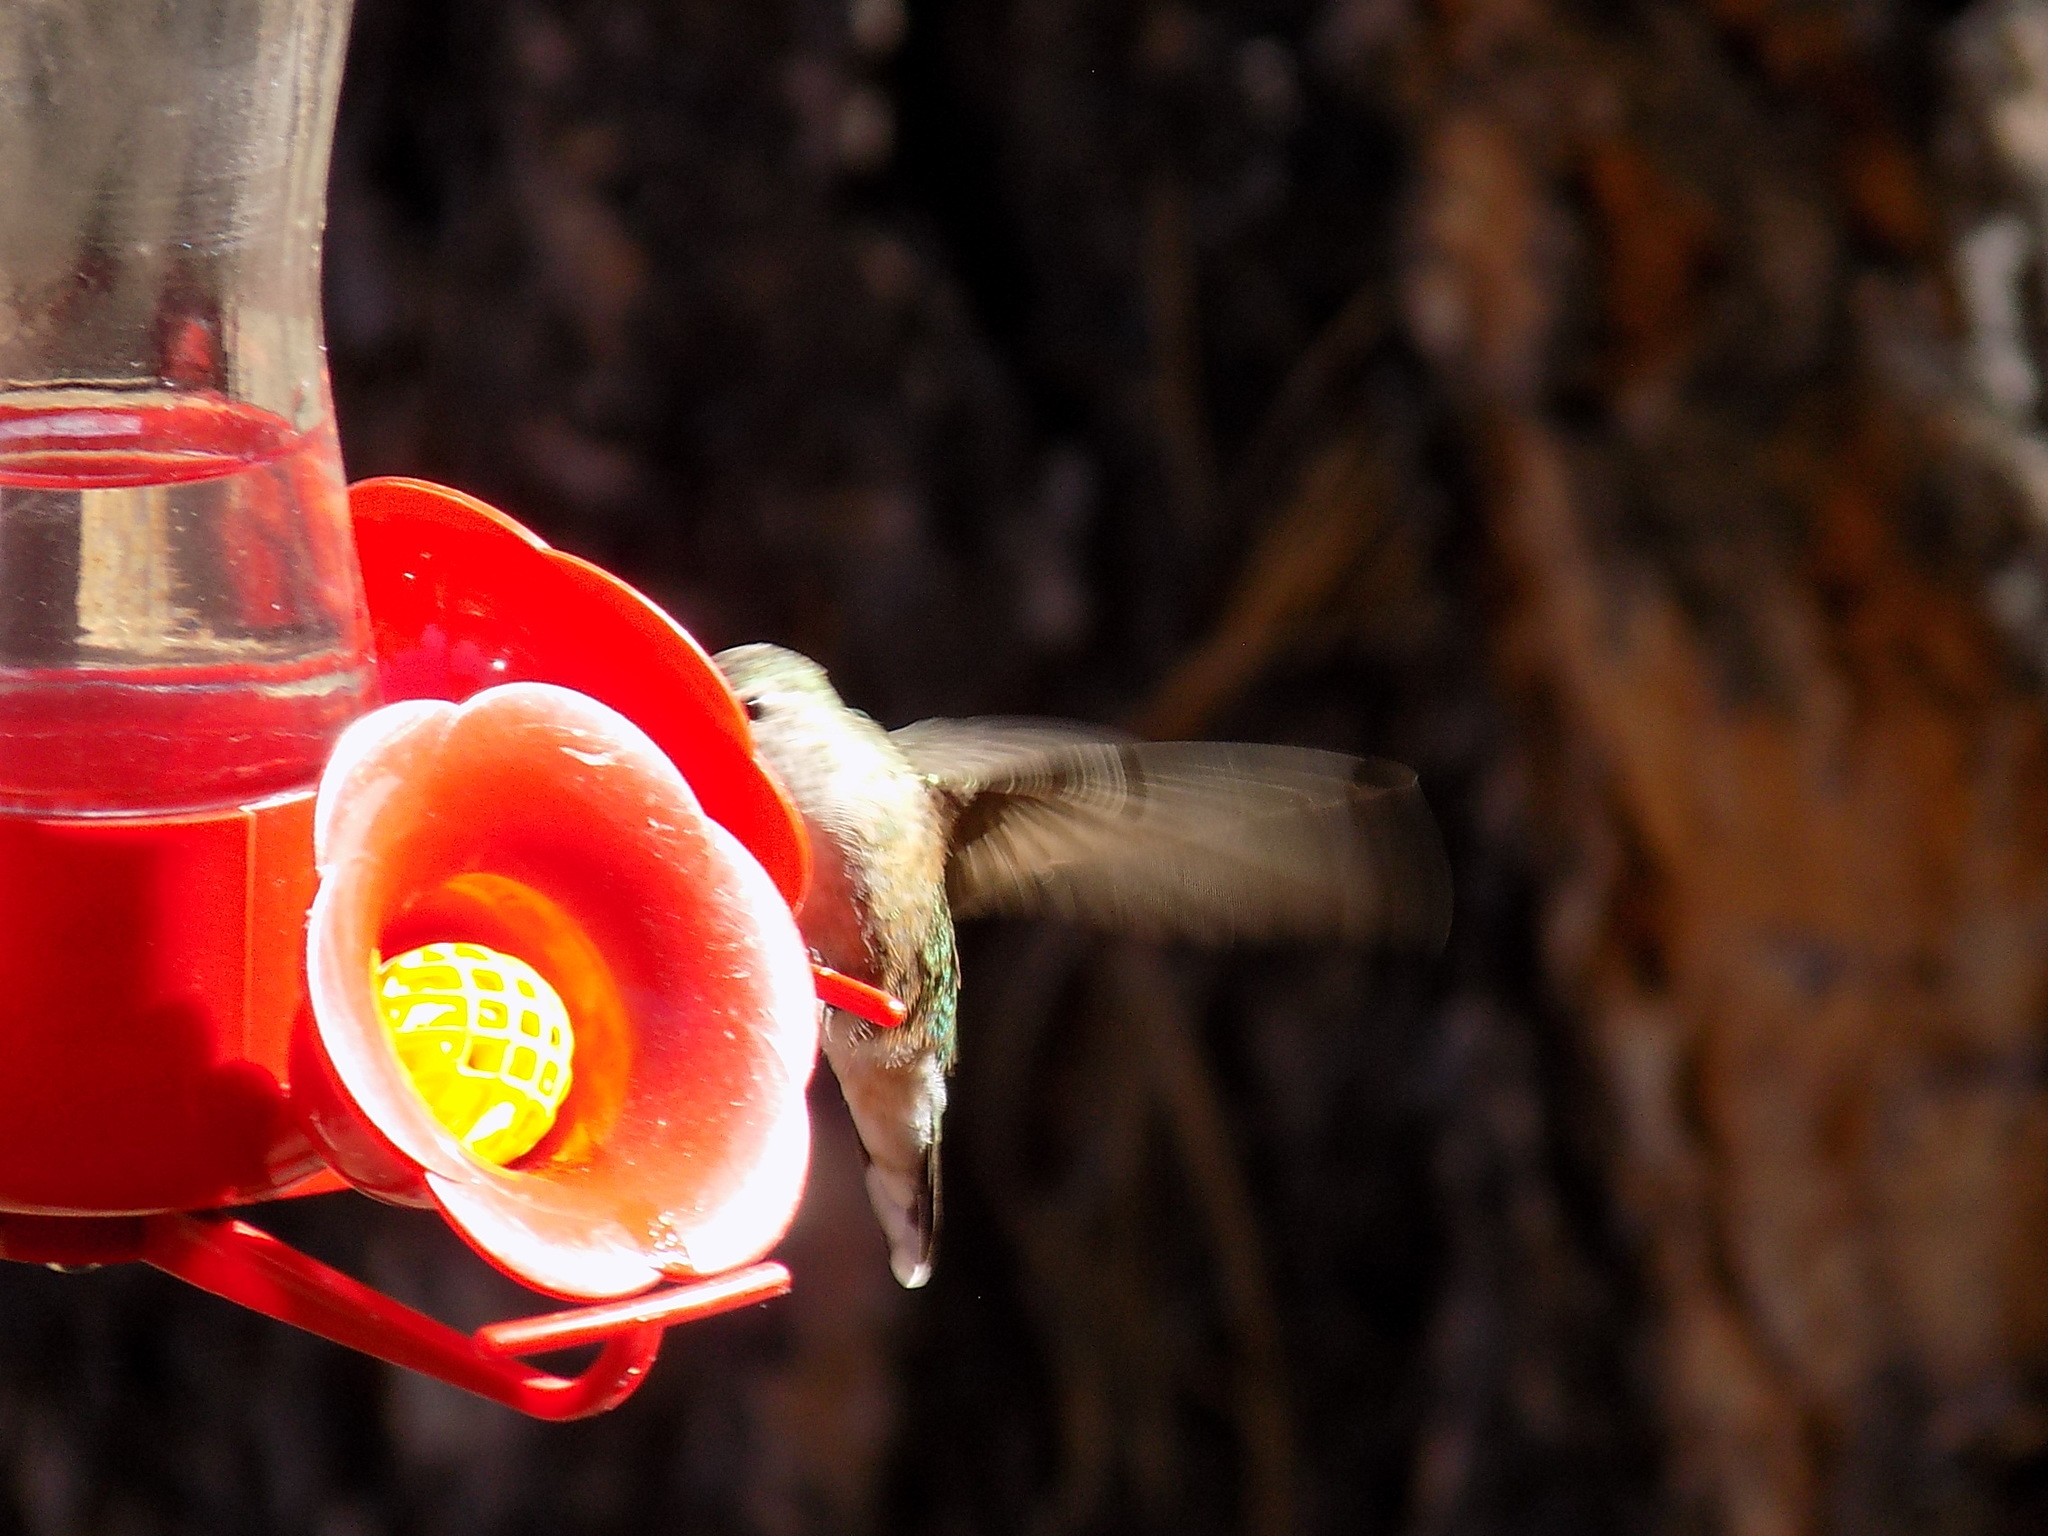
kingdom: Animalia
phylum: Chordata
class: Aves
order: Apodiformes
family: Trochilidae
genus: Selasphorus
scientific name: Selasphorus platycercus
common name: Broad-tailed hummingbird
